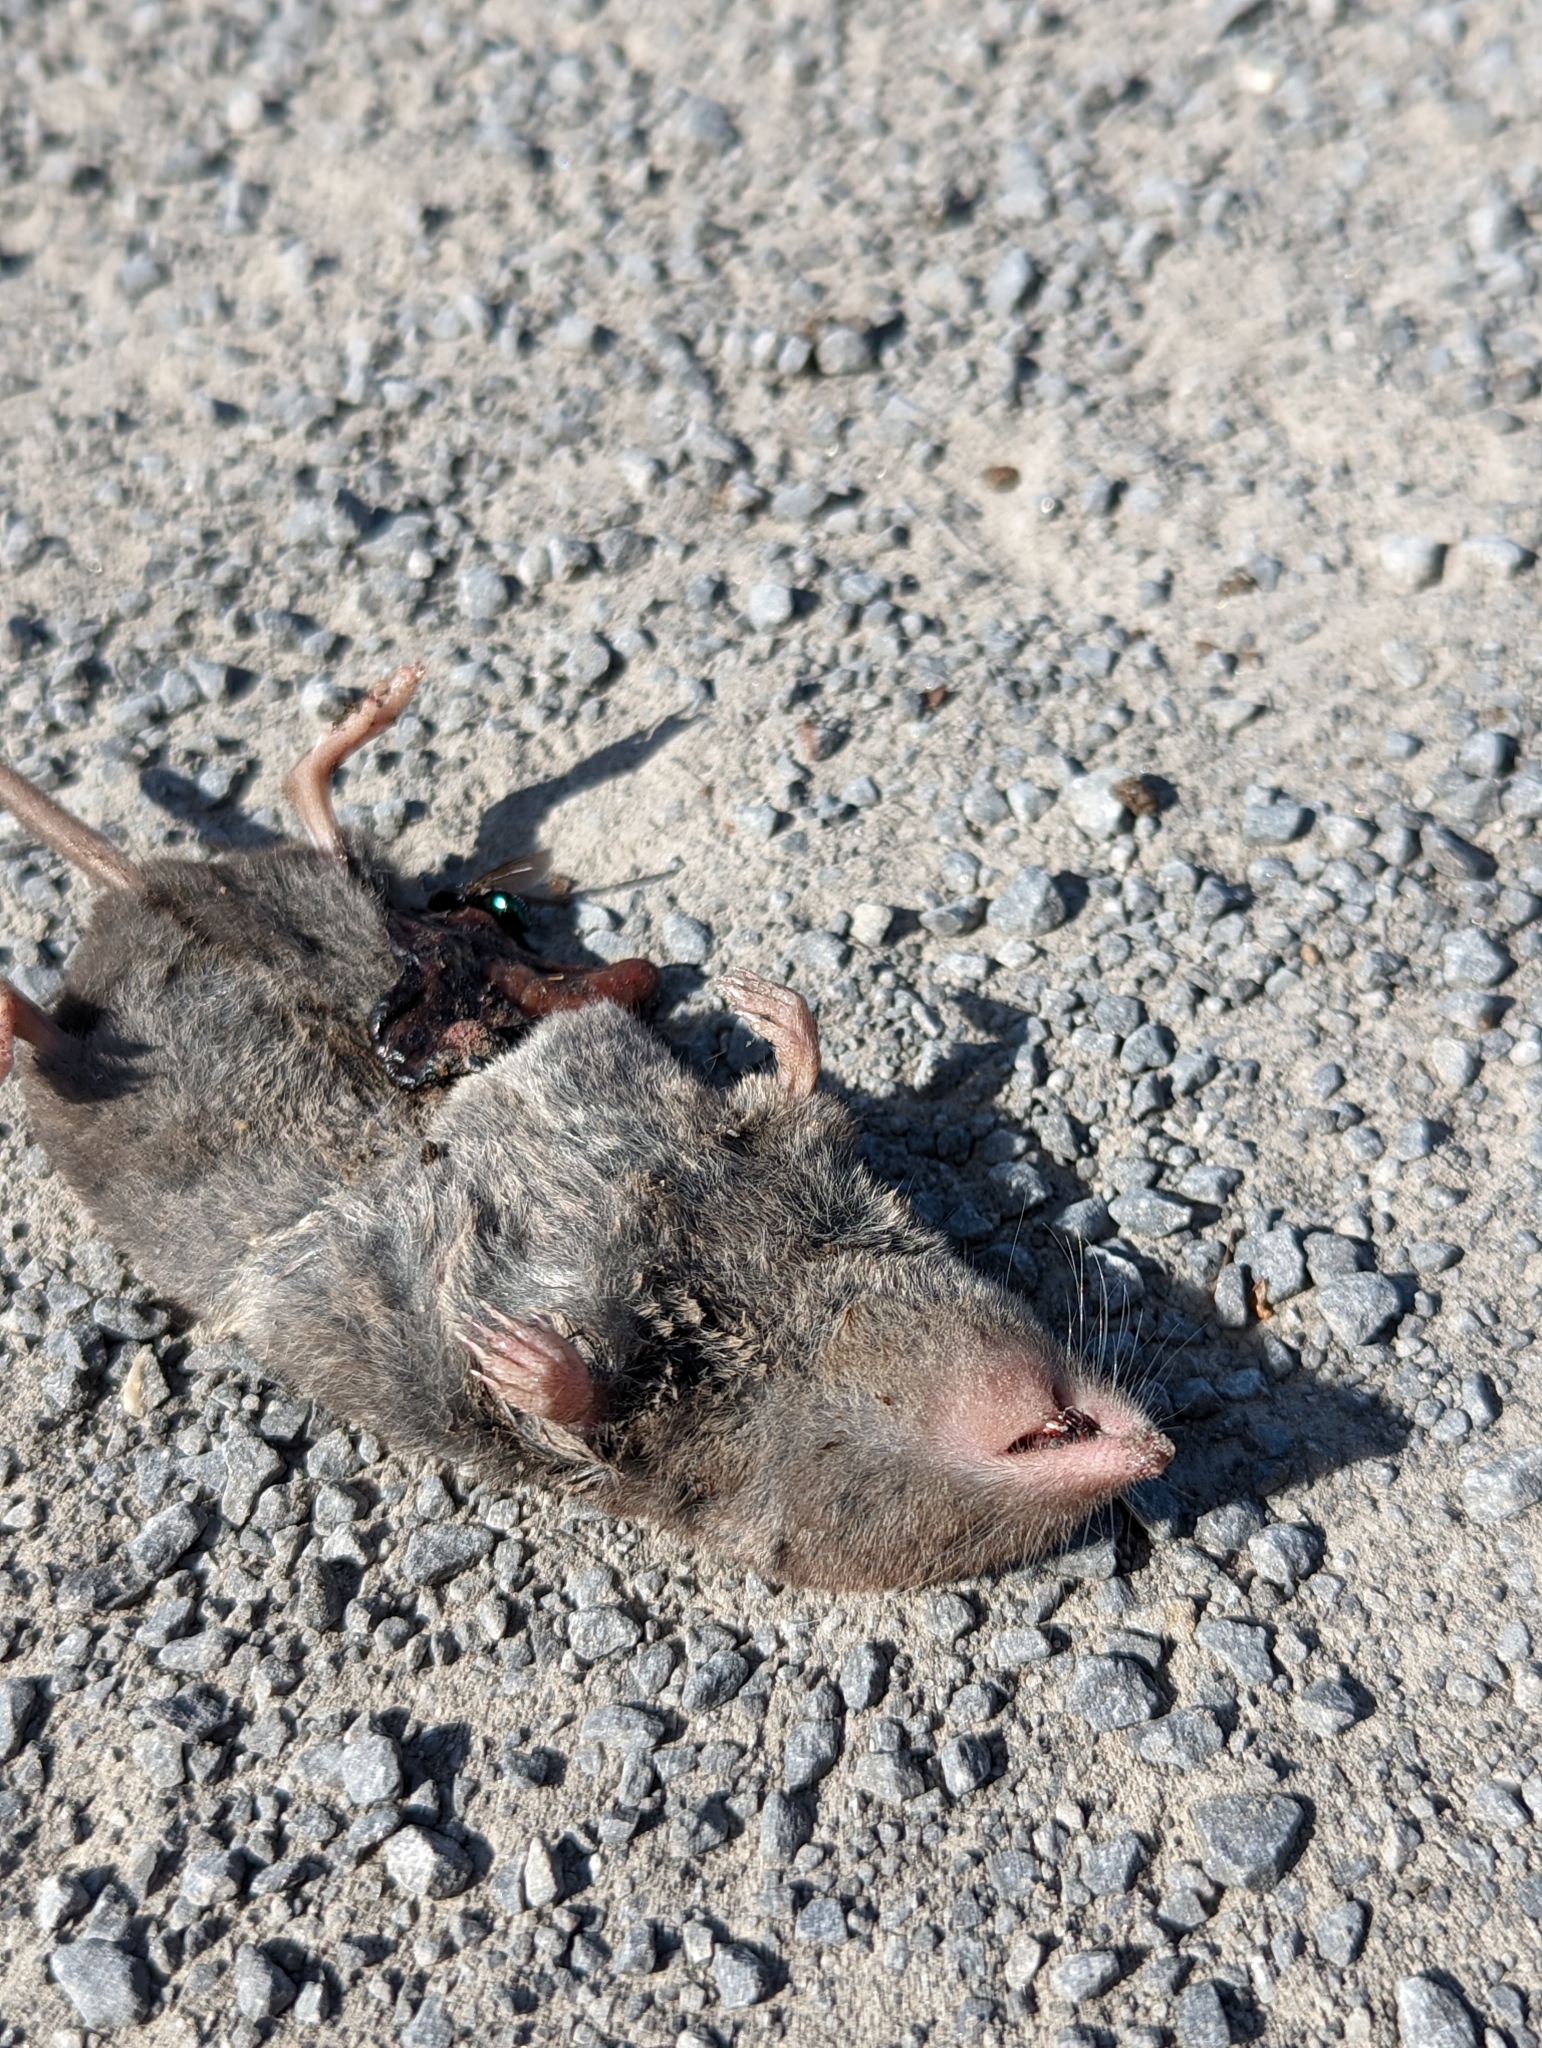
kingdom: Animalia
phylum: Chordata
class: Mammalia
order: Soricomorpha
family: Soricidae
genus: Blarina
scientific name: Blarina brevicauda
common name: Northern short-tailed shrew
